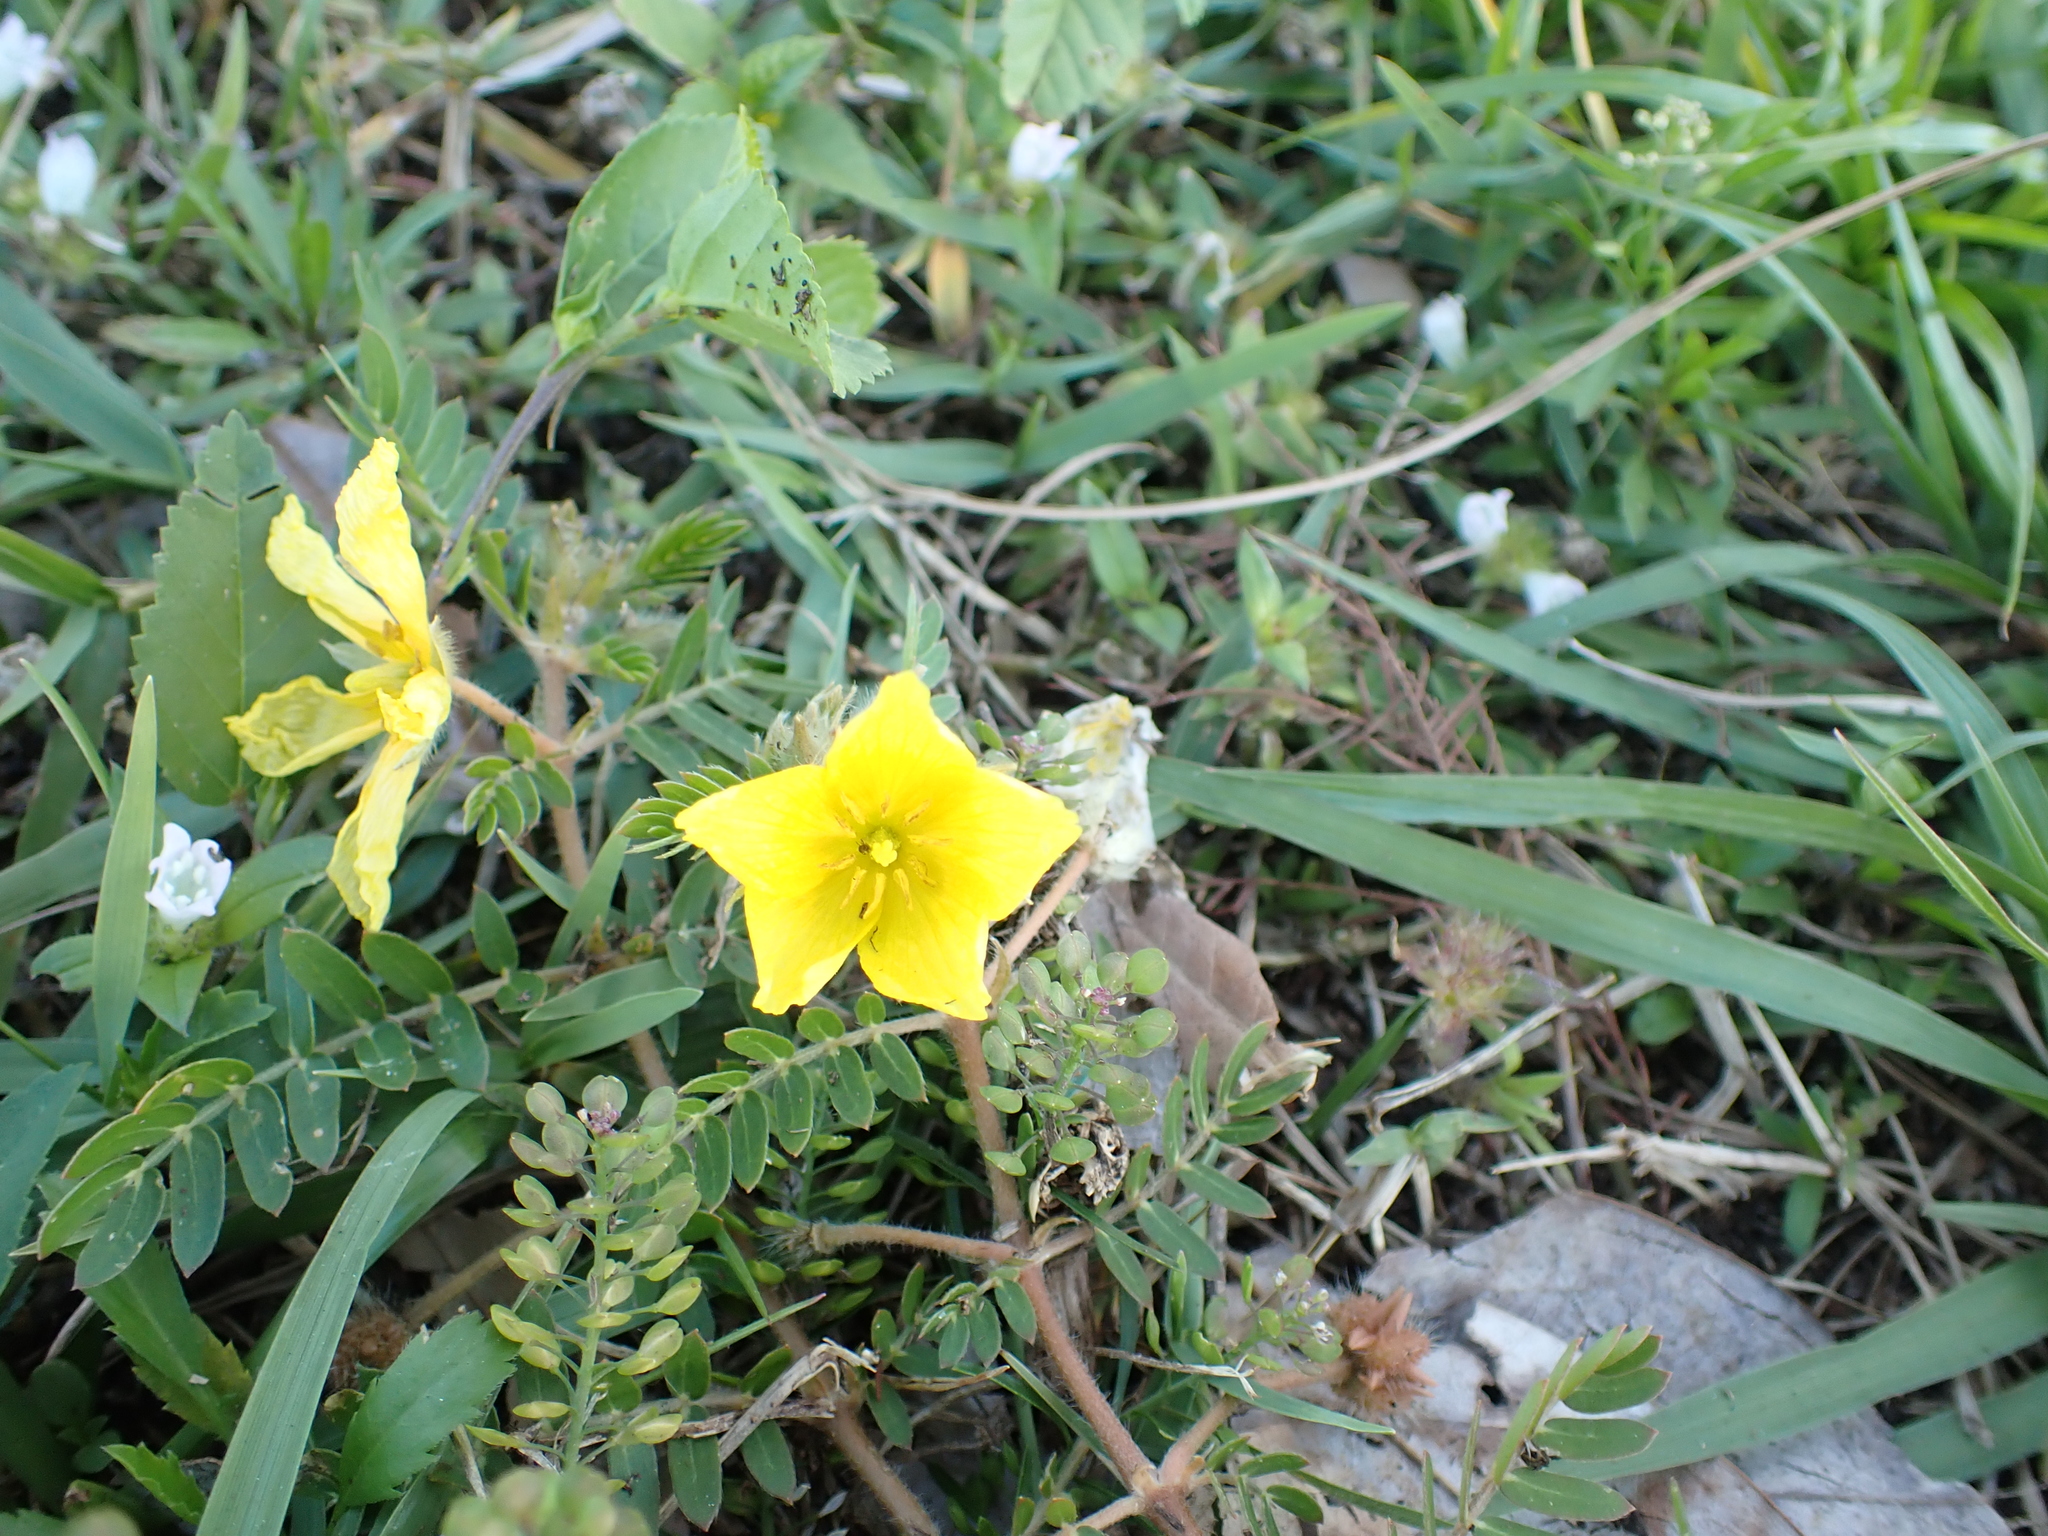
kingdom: Plantae
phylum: Tracheophyta
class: Magnoliopsida
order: Zygophyllales
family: Zygophyllaceae
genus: Tribulus
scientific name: Tribulus cistoides
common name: Jamaican feverplant
